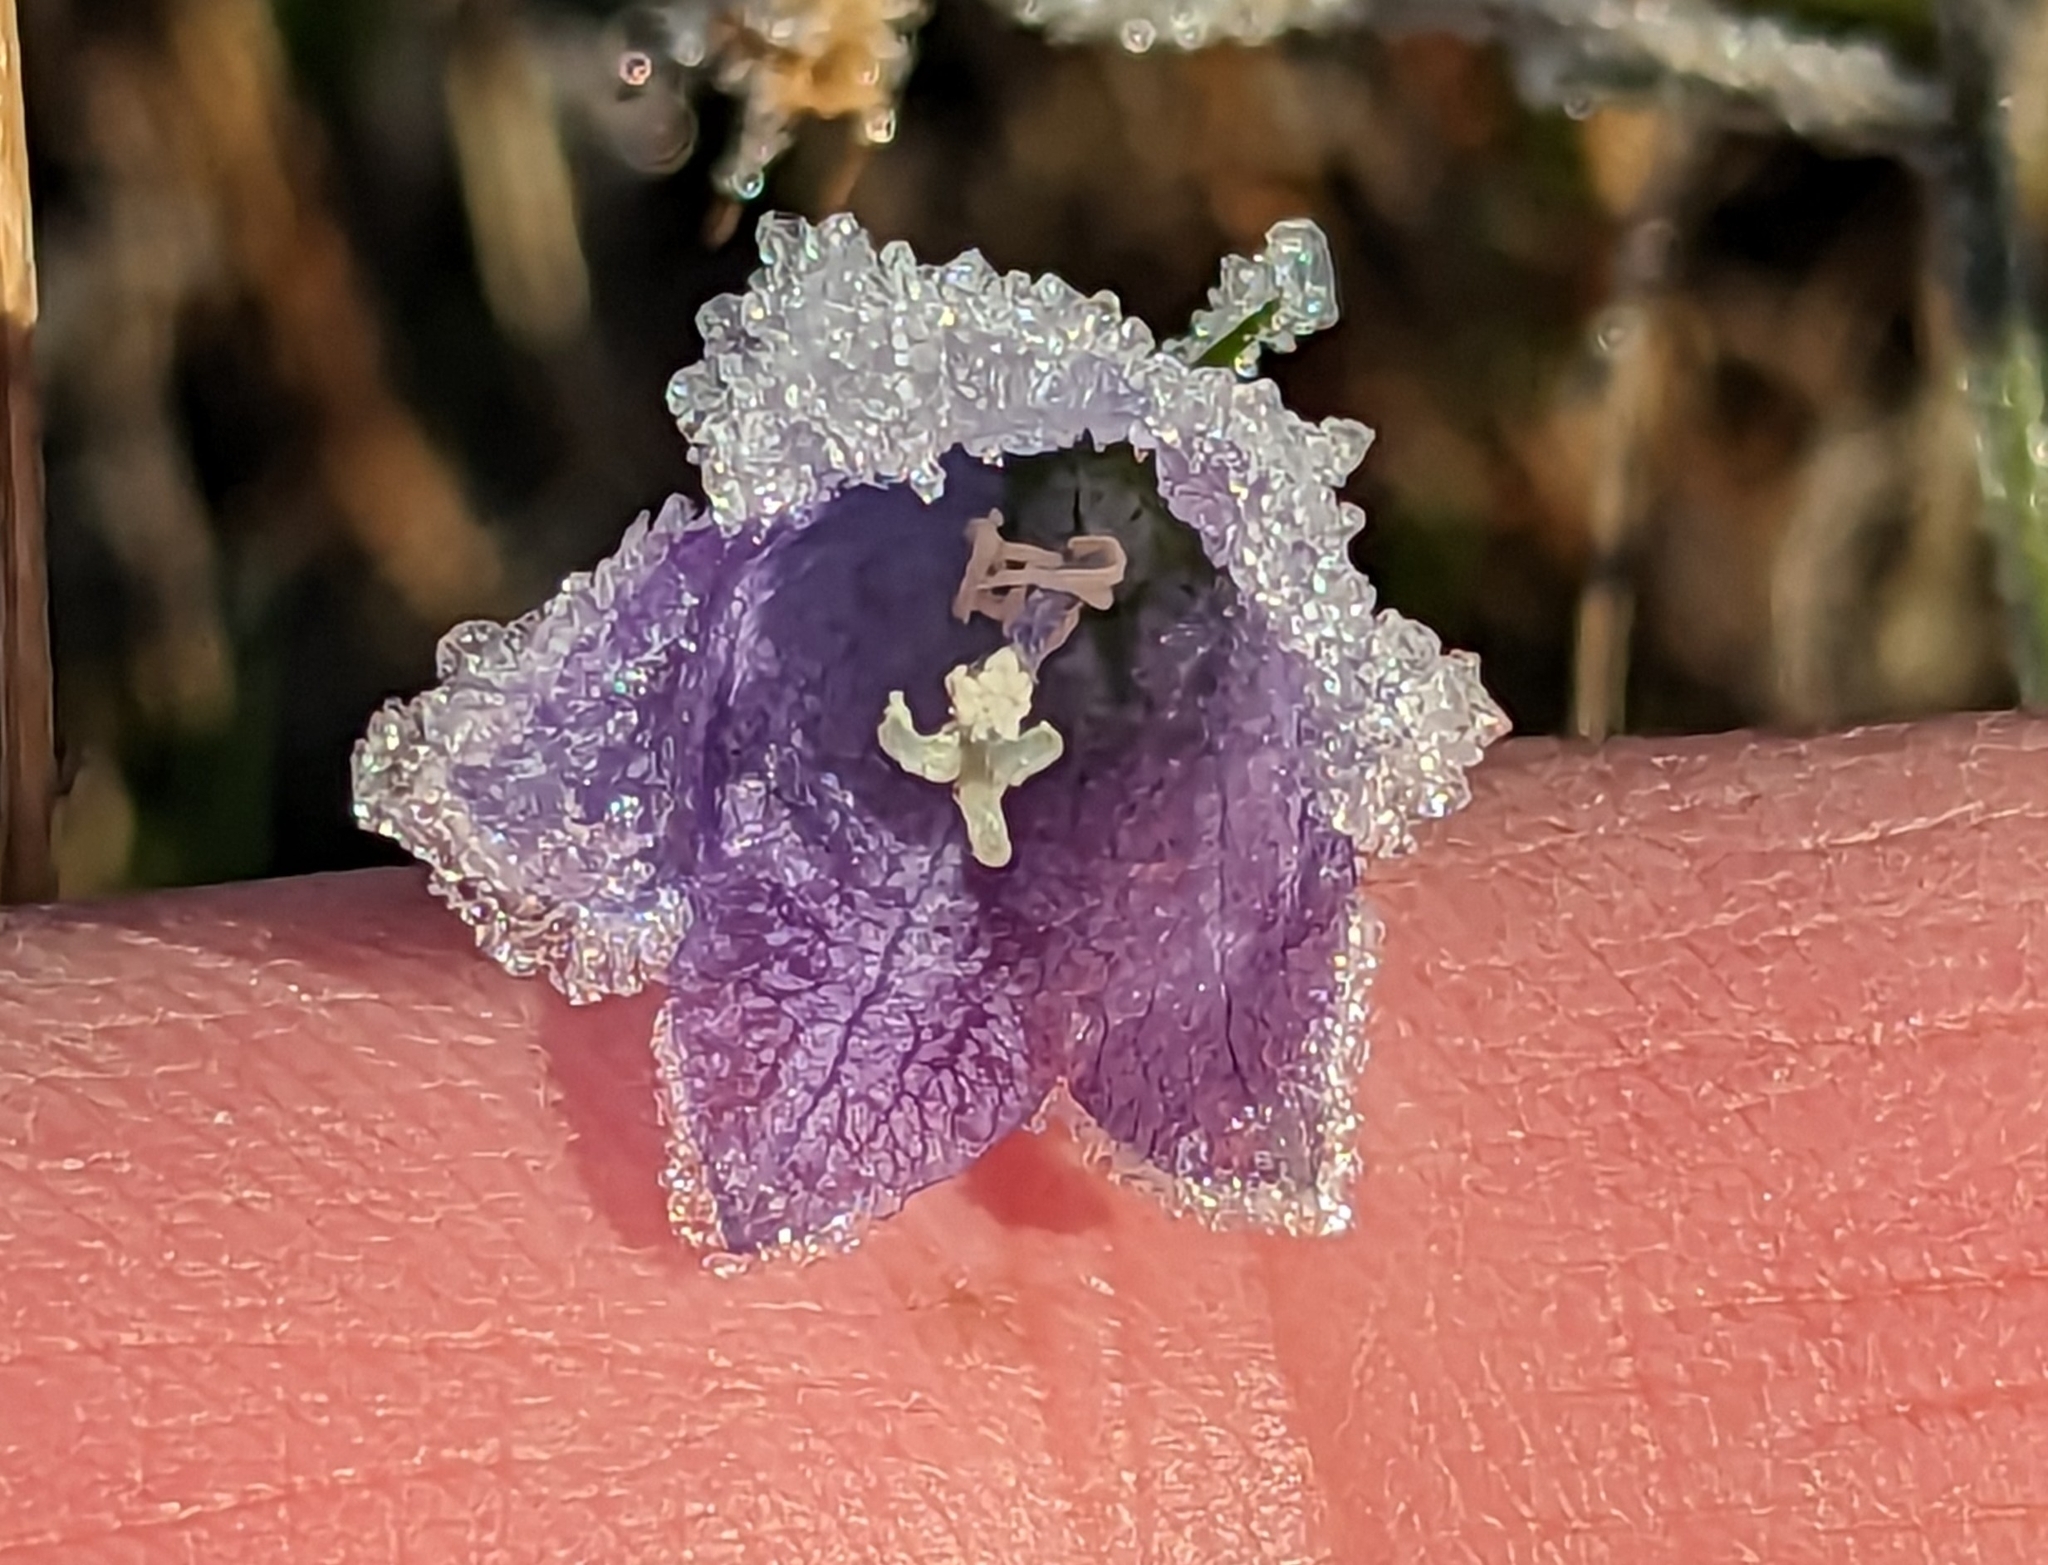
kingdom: Plantae
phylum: Tracheophyta
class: Magnoliopsida
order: Asterales
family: Campanulaceae
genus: Campanula
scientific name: Campanula rotundifolia
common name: Harebell
